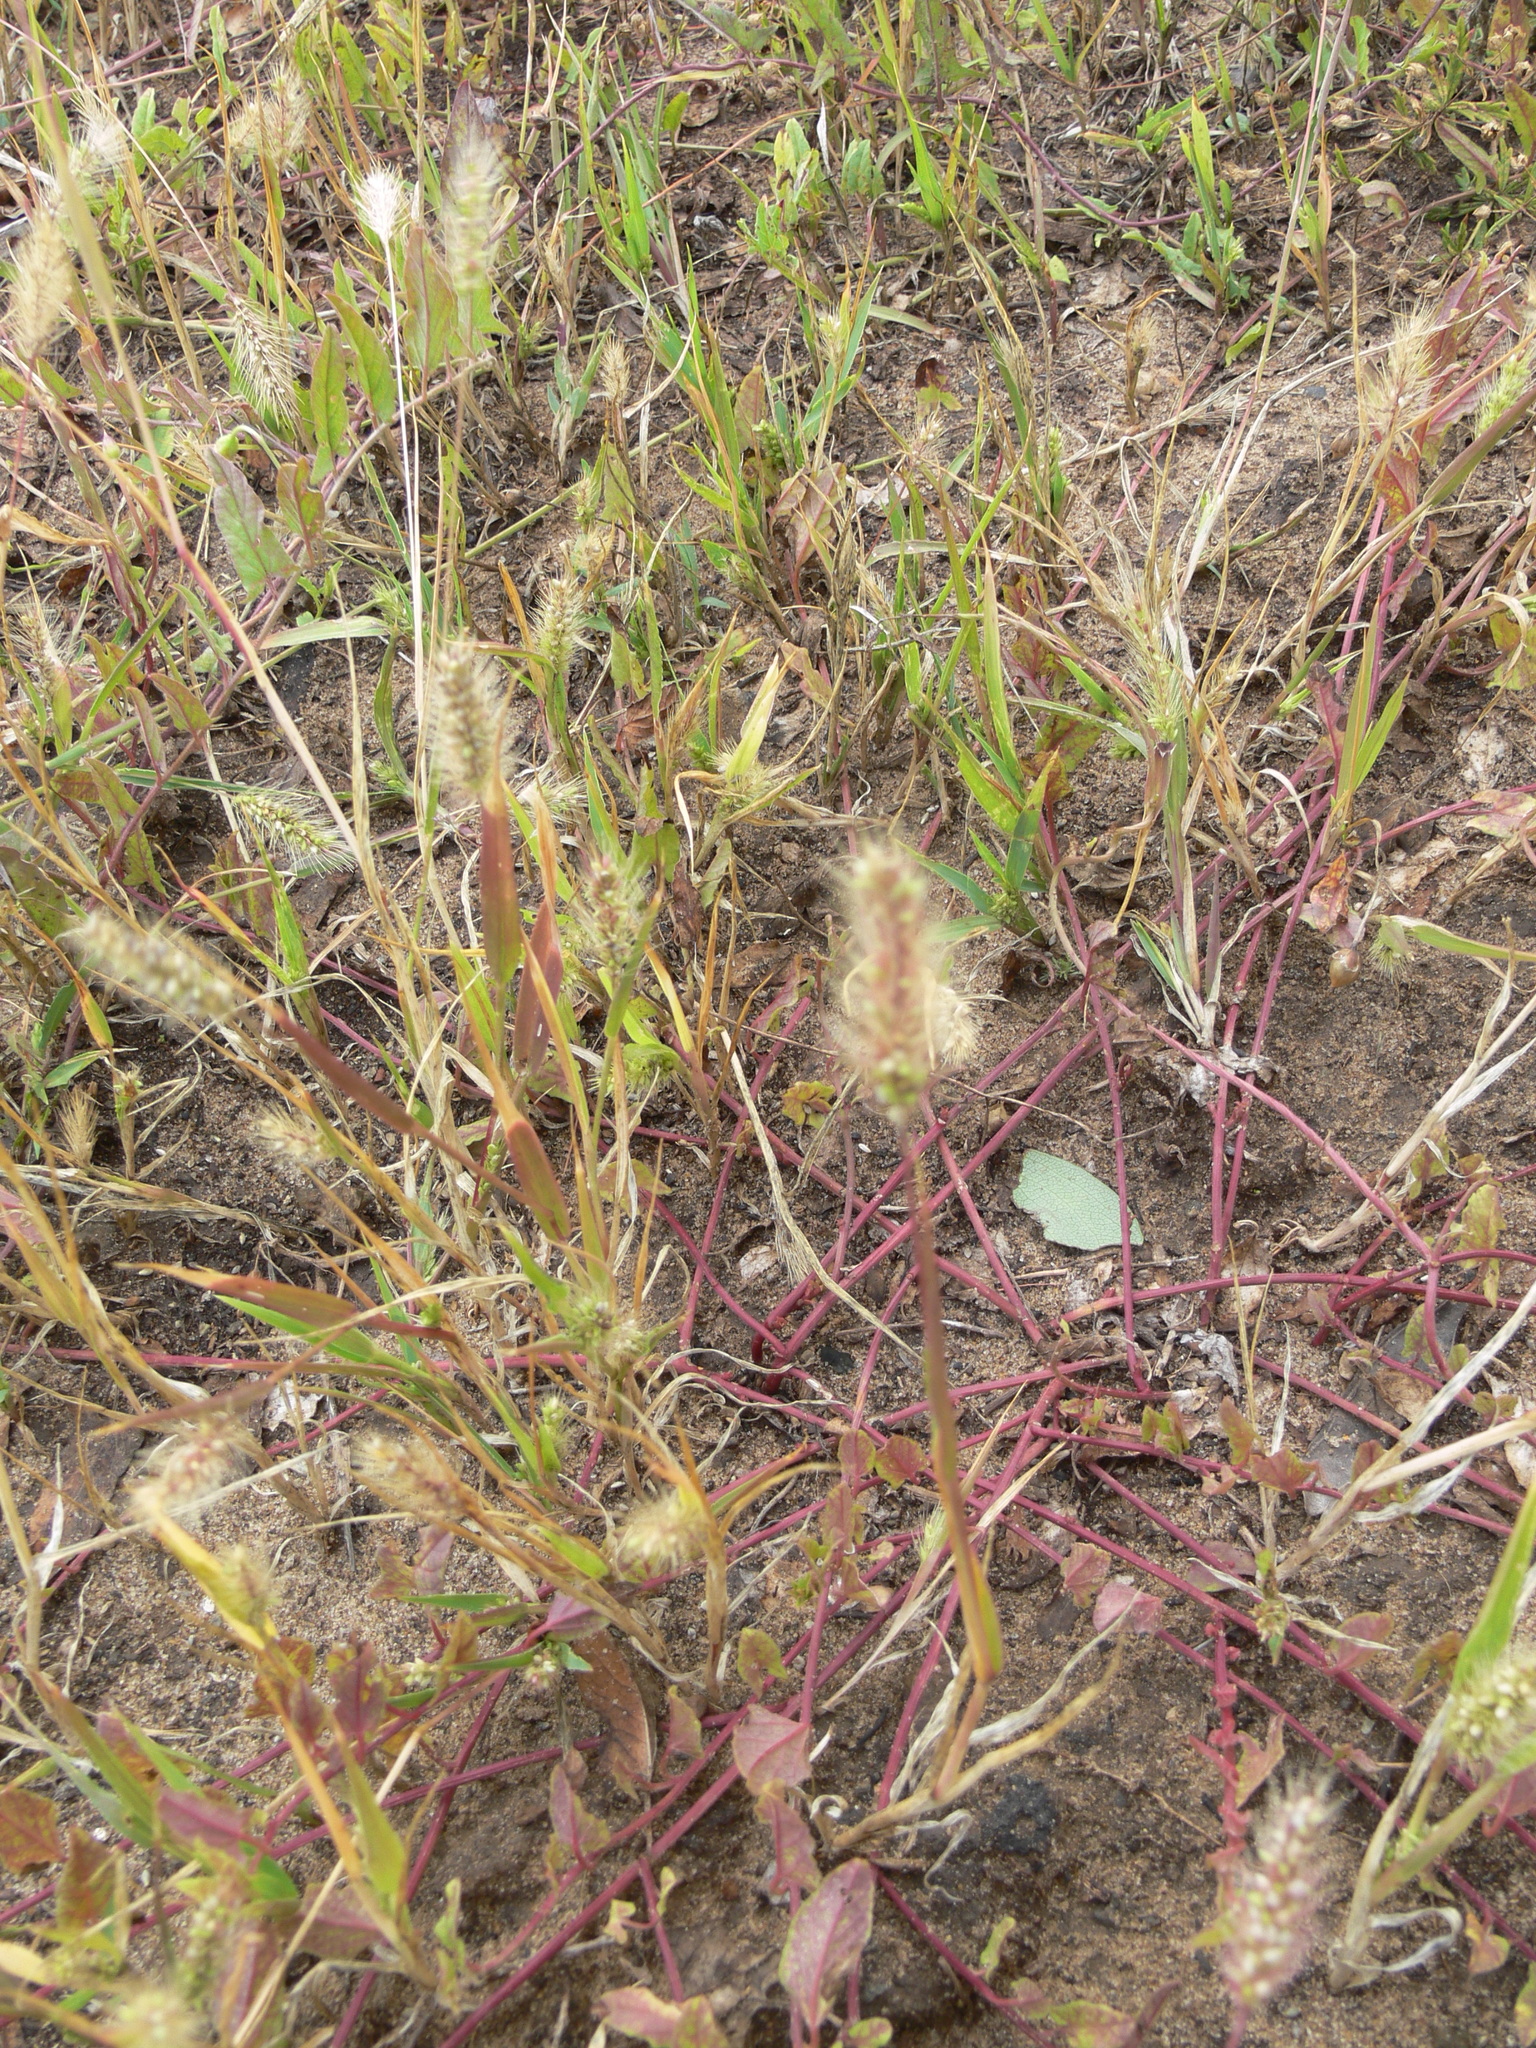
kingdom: Plantae
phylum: Tracheophyta
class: Liliopsida
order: Poales
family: Poaceae
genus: Setaria
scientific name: Setaria viridis
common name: Green bristlegrass
